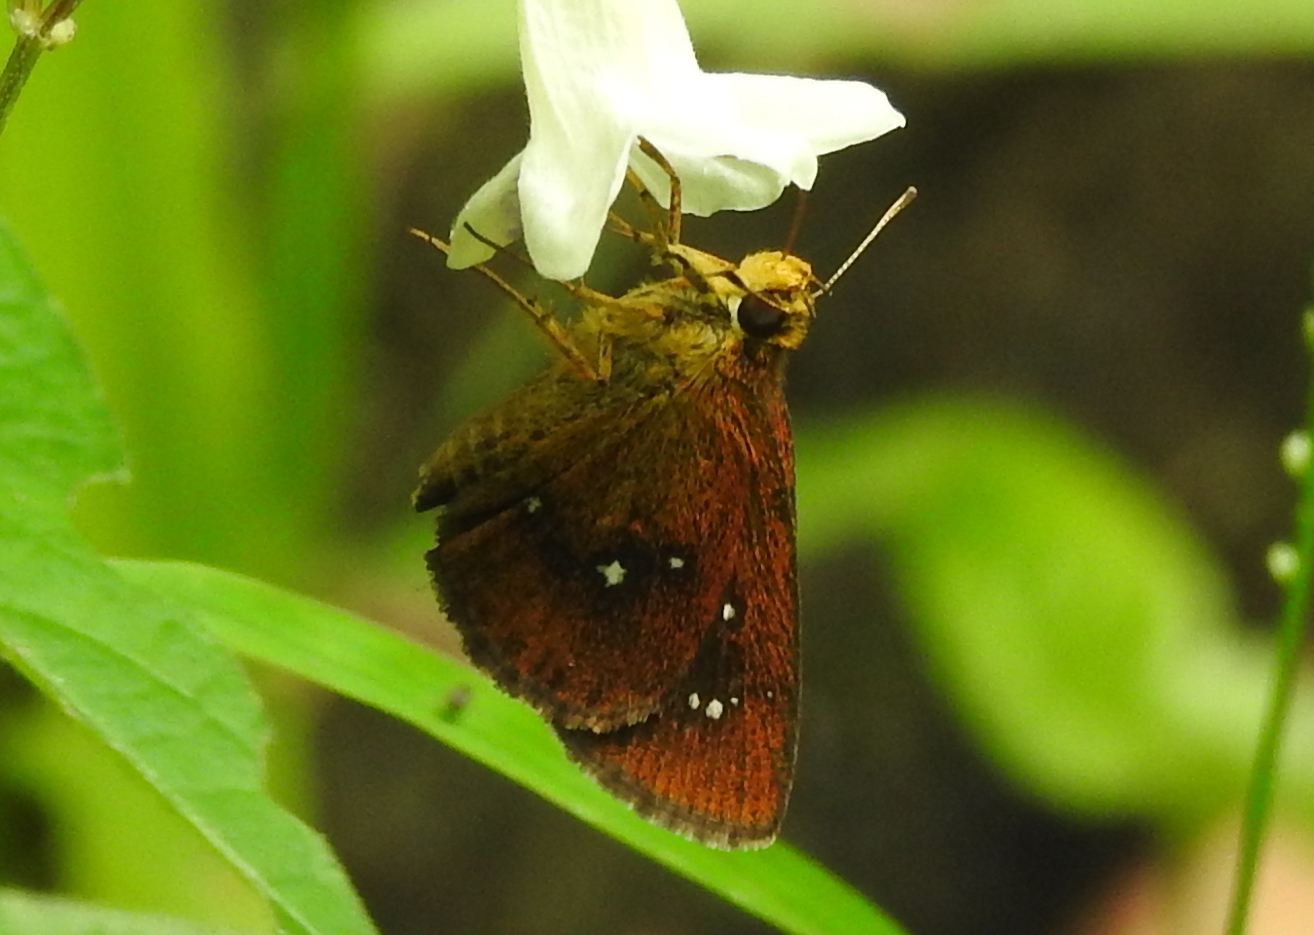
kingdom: Animalia
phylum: Arthropoda
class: Insecta
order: Lepidoptera
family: Hesperiidae
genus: Iambrix
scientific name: Iambrix salsala
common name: Chestnut bob
